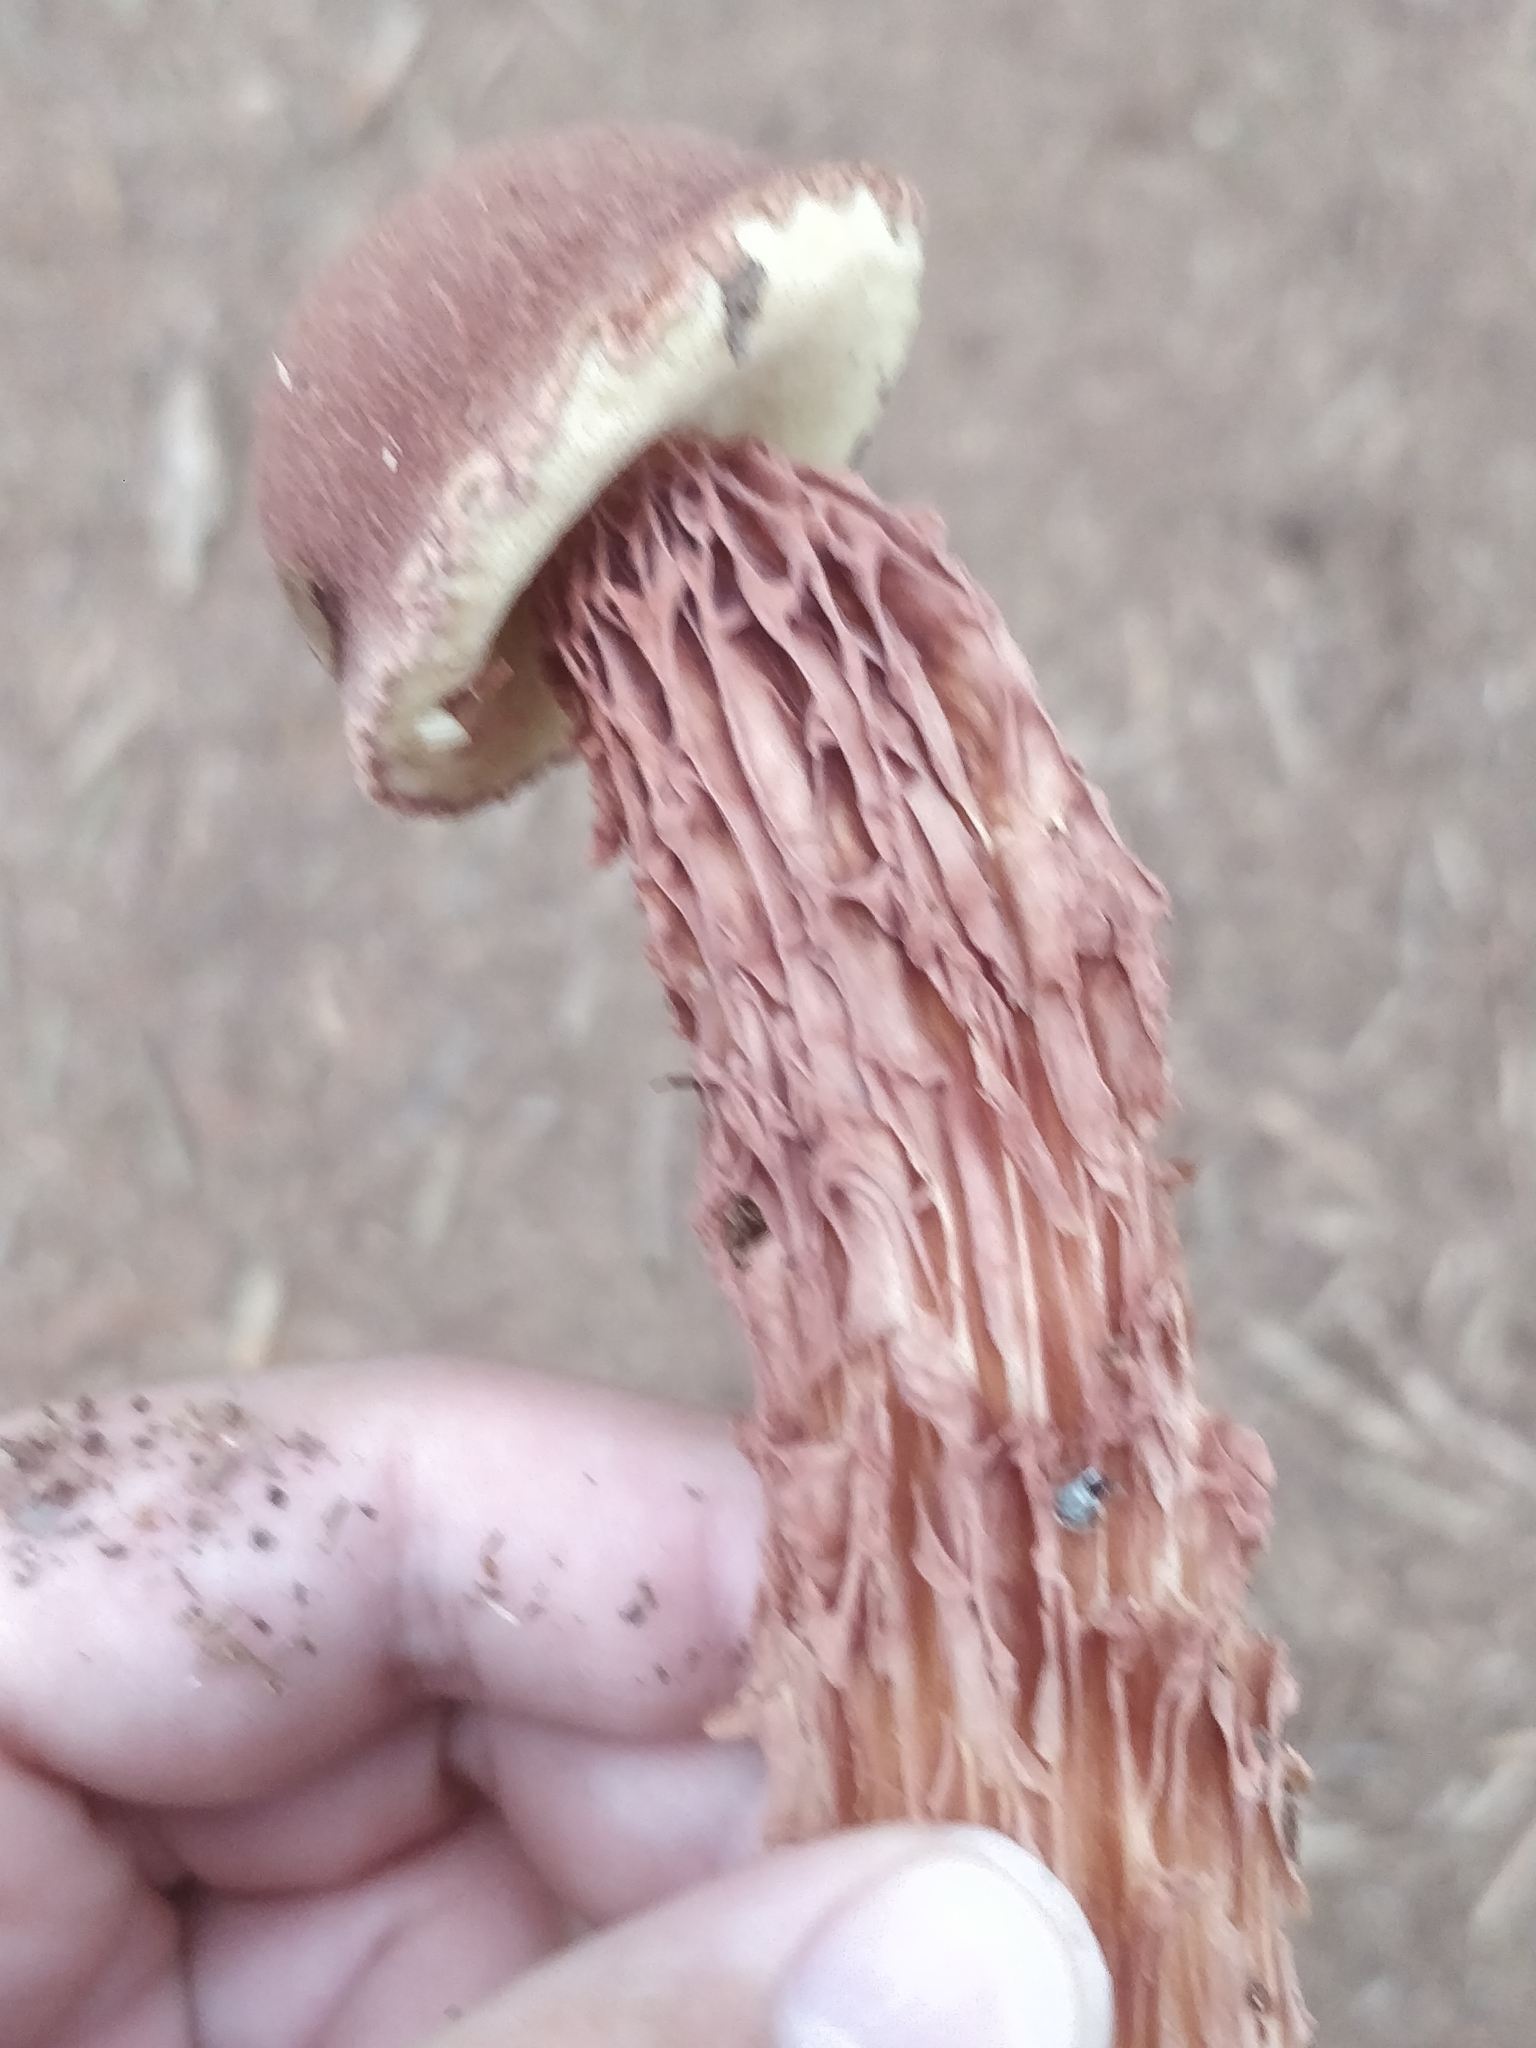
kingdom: Fungi
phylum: Basidiomycota
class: Agaricomycetes
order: Boletales
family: Boletaceae
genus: Aureoboletus
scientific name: Aureoboletus russellii
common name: Russell's bolete
